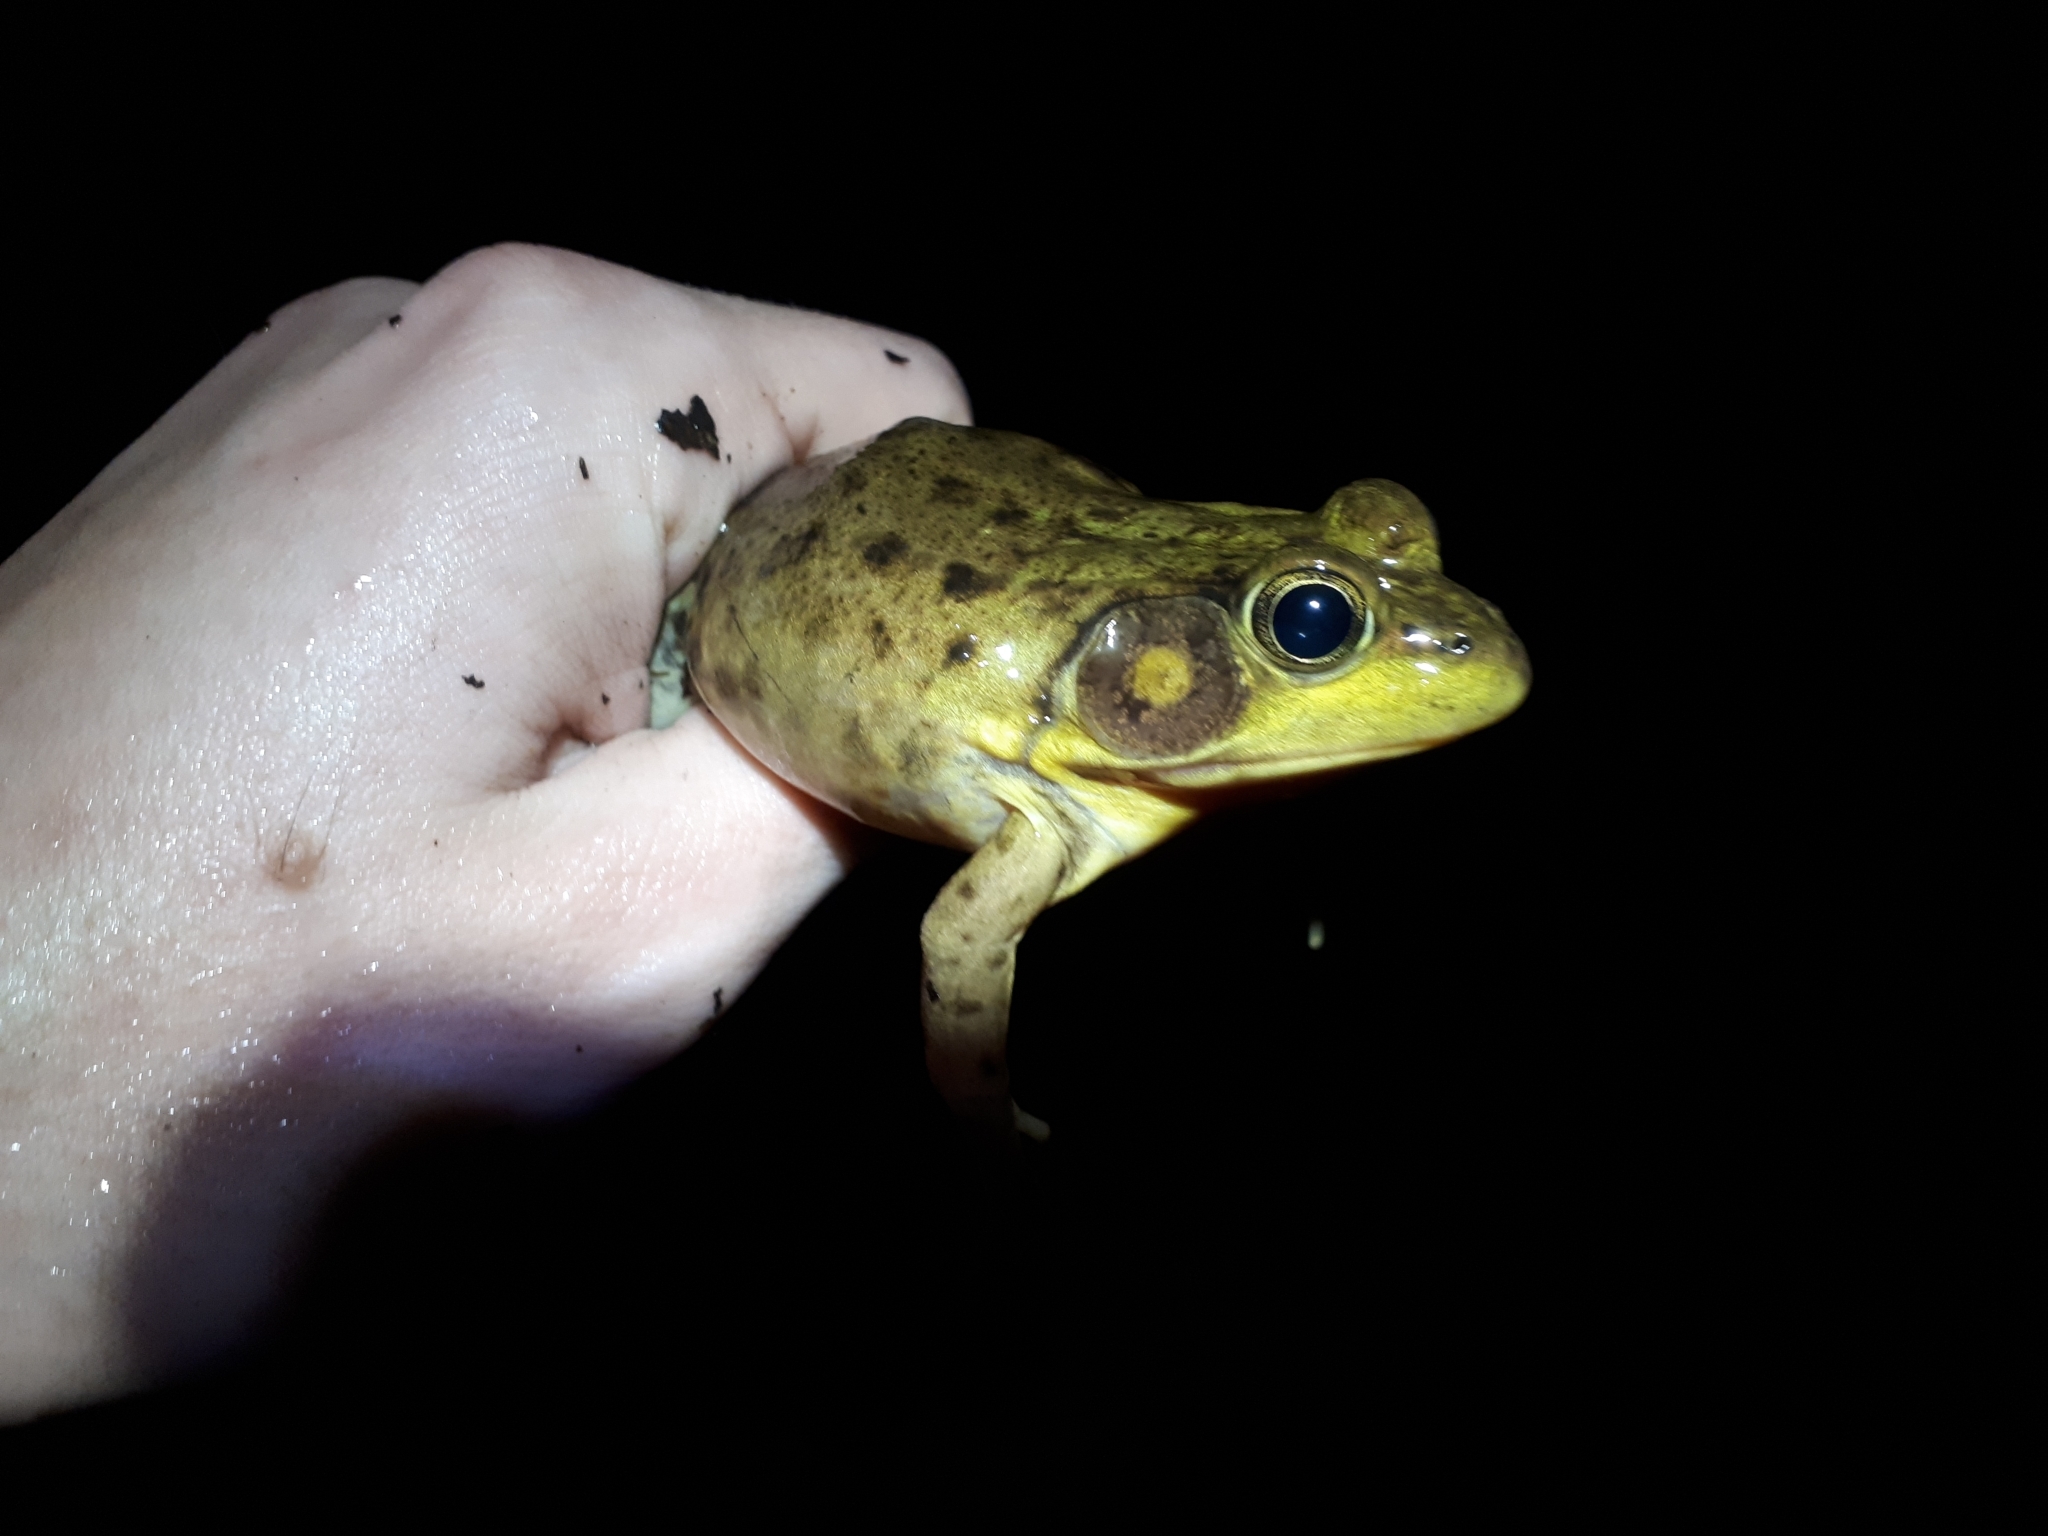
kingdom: Animalia
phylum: Chordata
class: Amphibia
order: Anura
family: Ranidae
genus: Lithobates
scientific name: Lithobates catesbeianus
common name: American bullfrog
